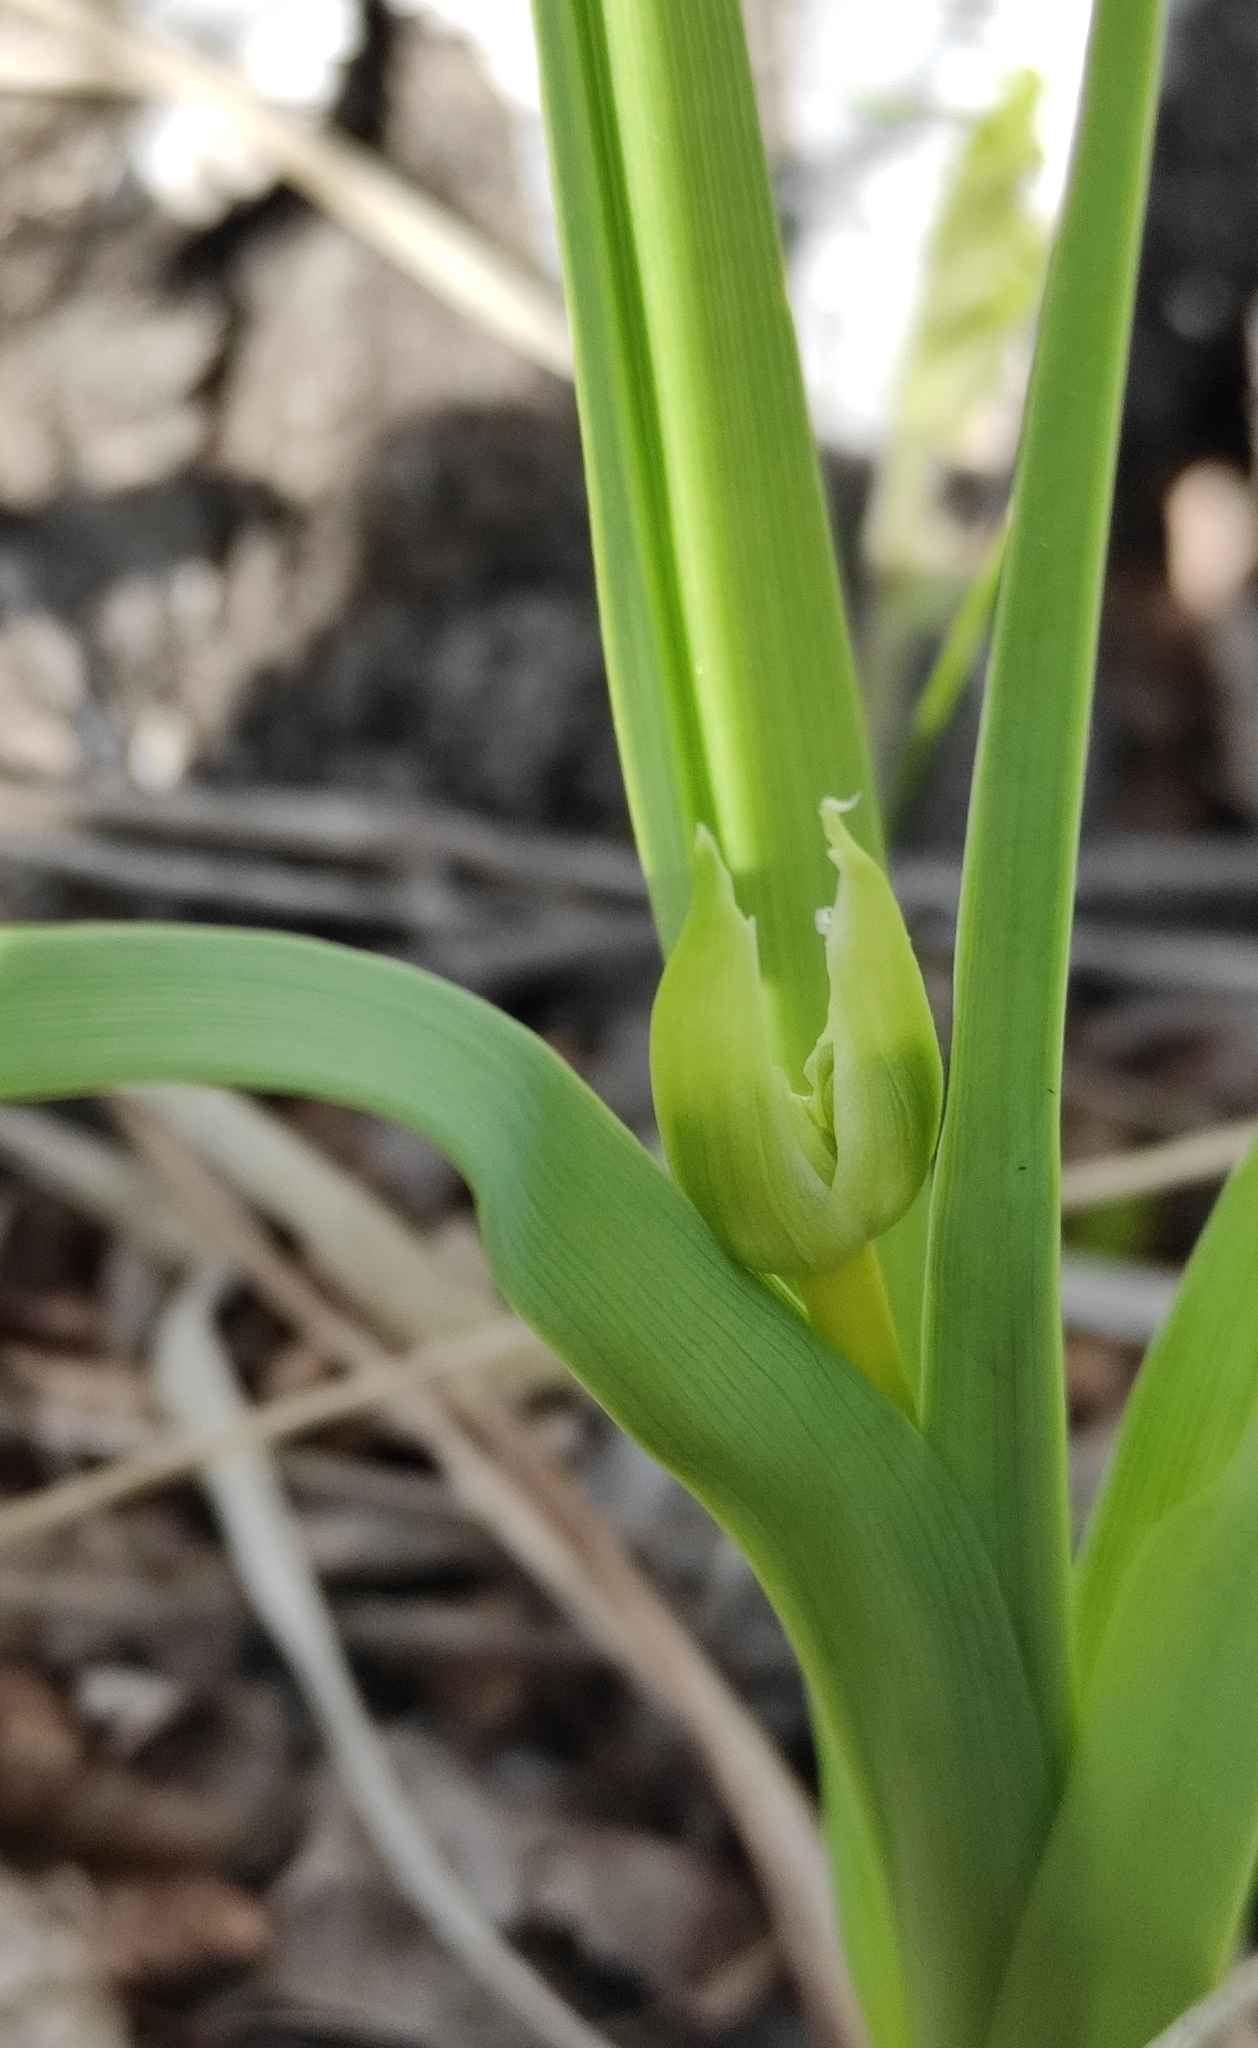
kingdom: Plantae
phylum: Tracheophyta
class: Liliopsida
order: Asparagales
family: Asphodelaceae
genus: Hemerocallis
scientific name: Hemerocallis minor
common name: Small daylily
